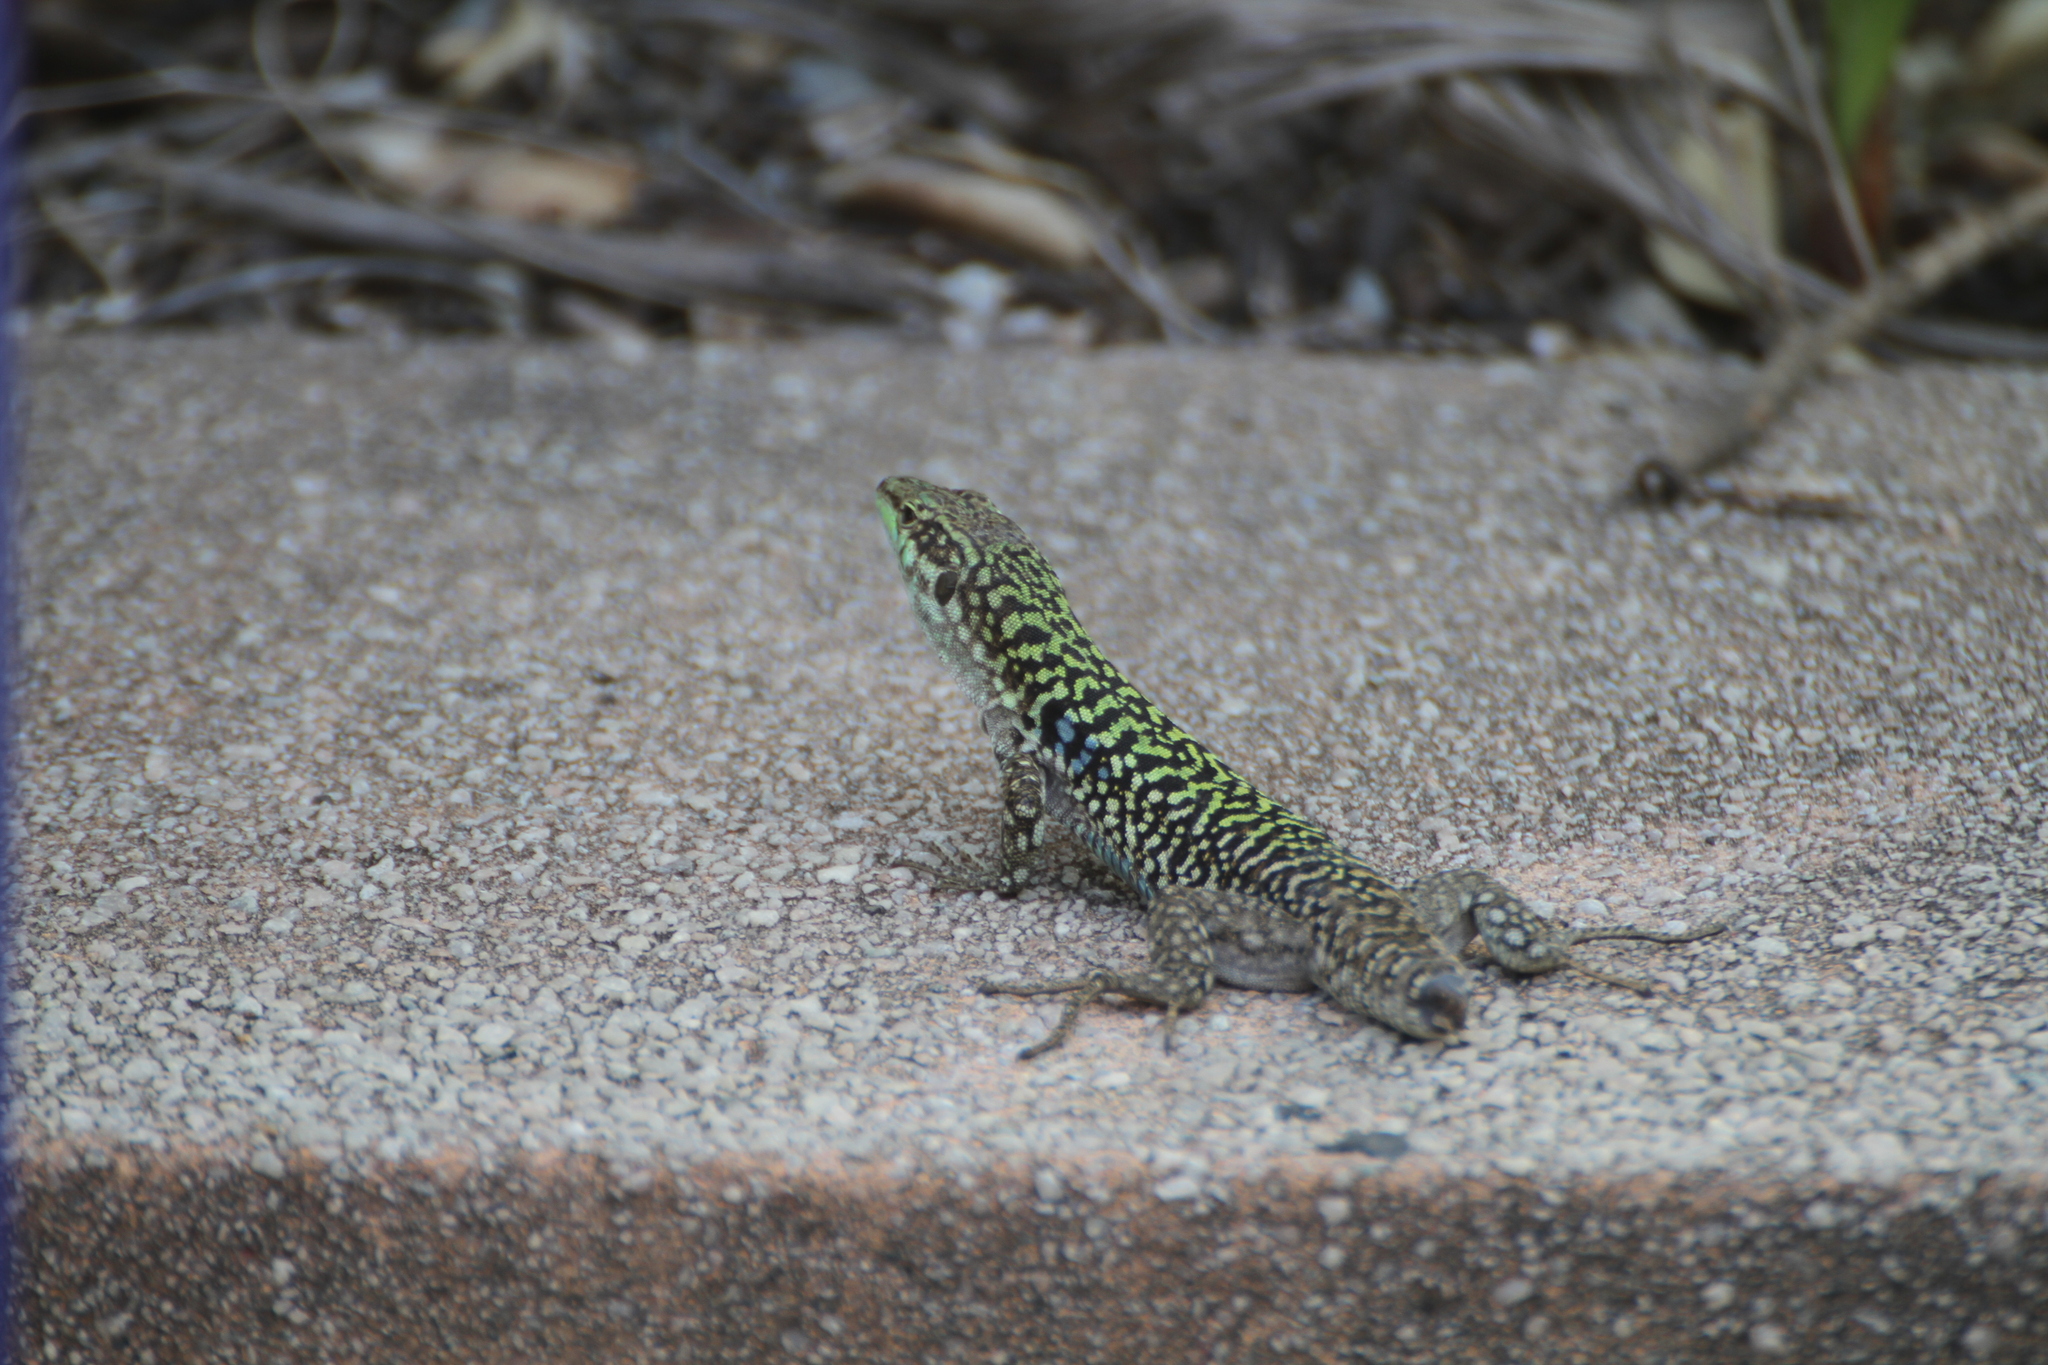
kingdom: Animalia
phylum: Chordata
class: Squamata
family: Lacertidae
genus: Podarcis
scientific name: Podarcis siculus
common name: Italian wall lizard
